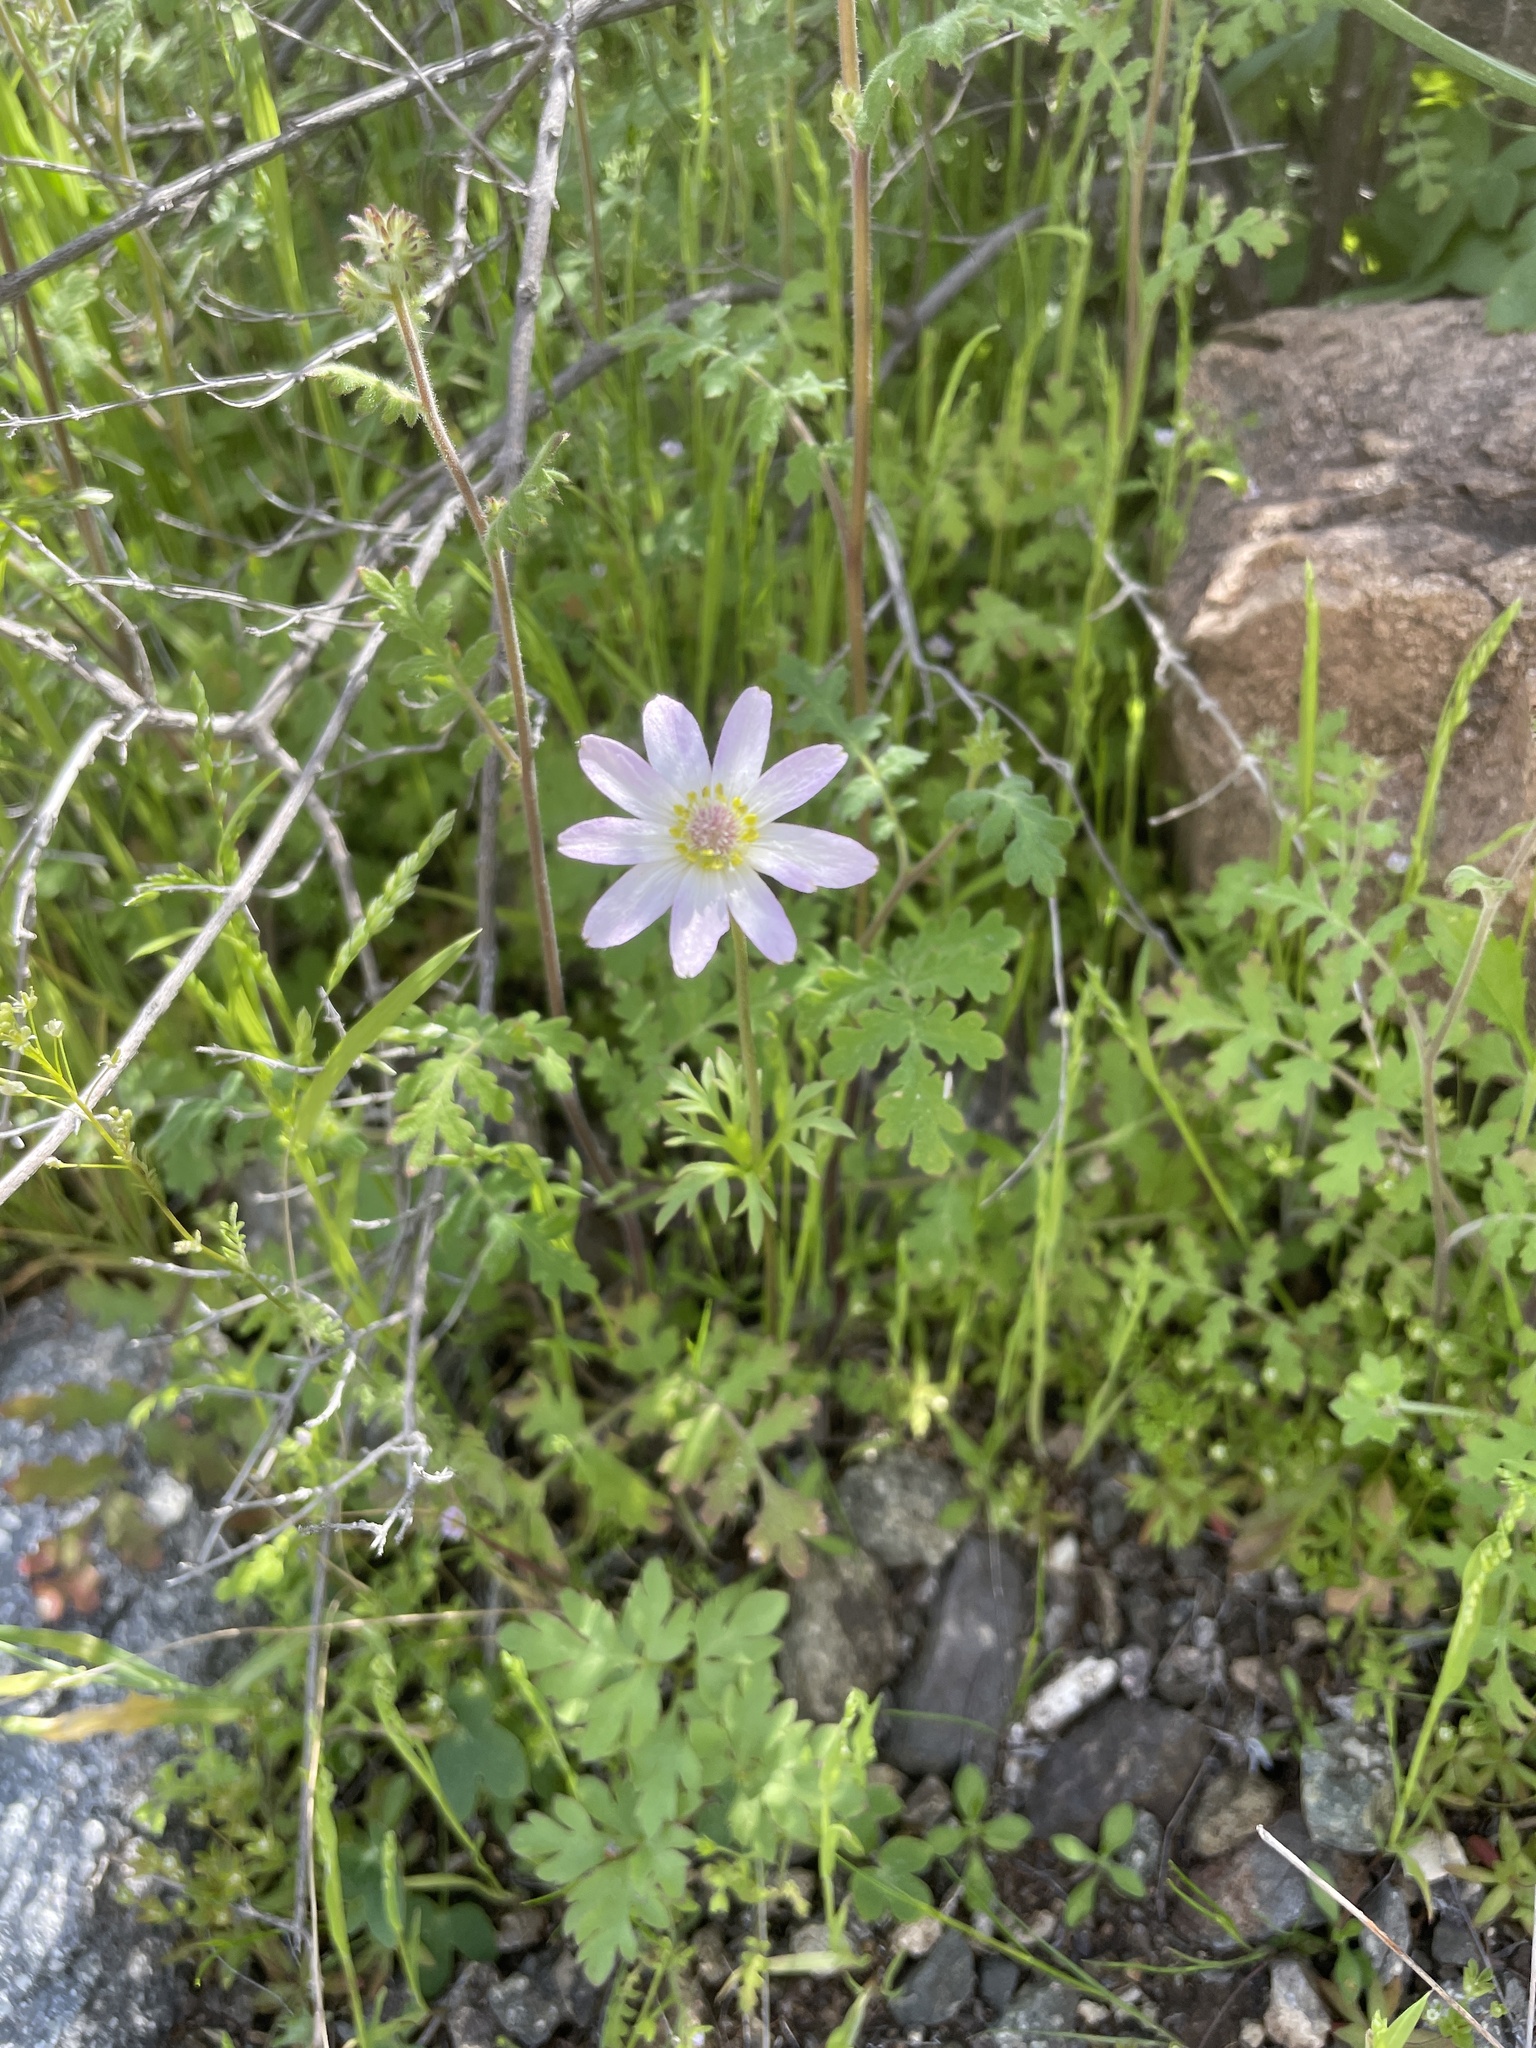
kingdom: Plantae
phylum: Tracheophyta
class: Magnoliopsida
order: Ranunculales
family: Ranunculaceae
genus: Anemone
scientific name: Anemone tuberosa
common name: Desert anemone
